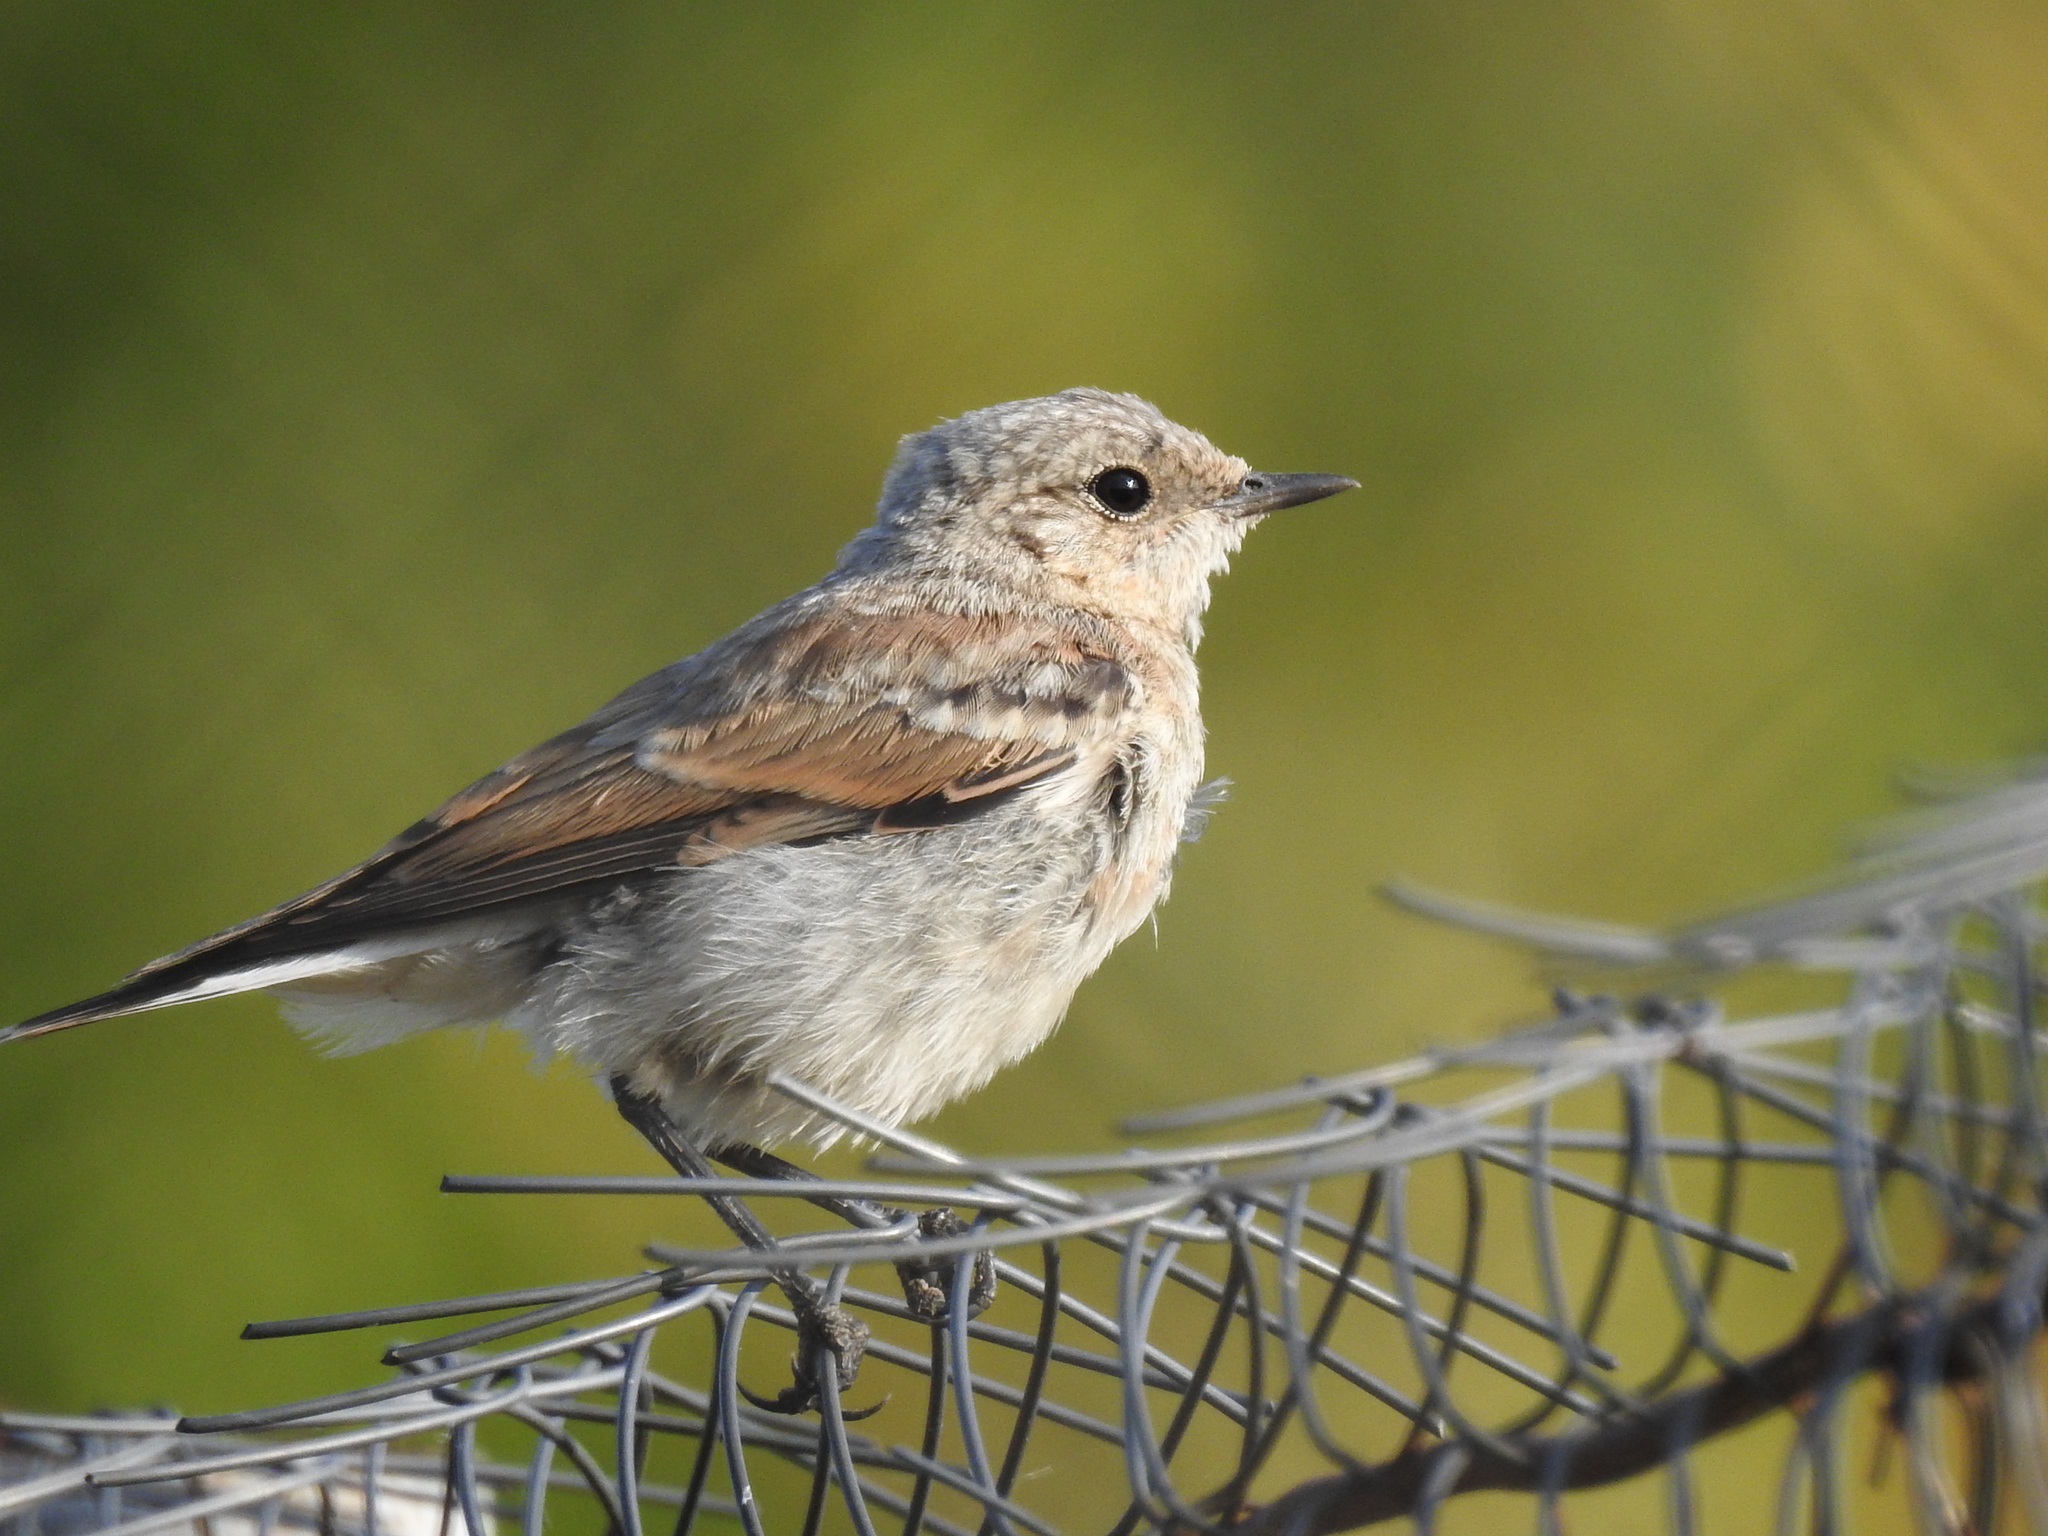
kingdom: Animalia
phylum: Chordata
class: Aves
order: Passeriformes
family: Muscicapidae
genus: Oenanthe
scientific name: Oenanthe oenanthe
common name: Northern wheatear
